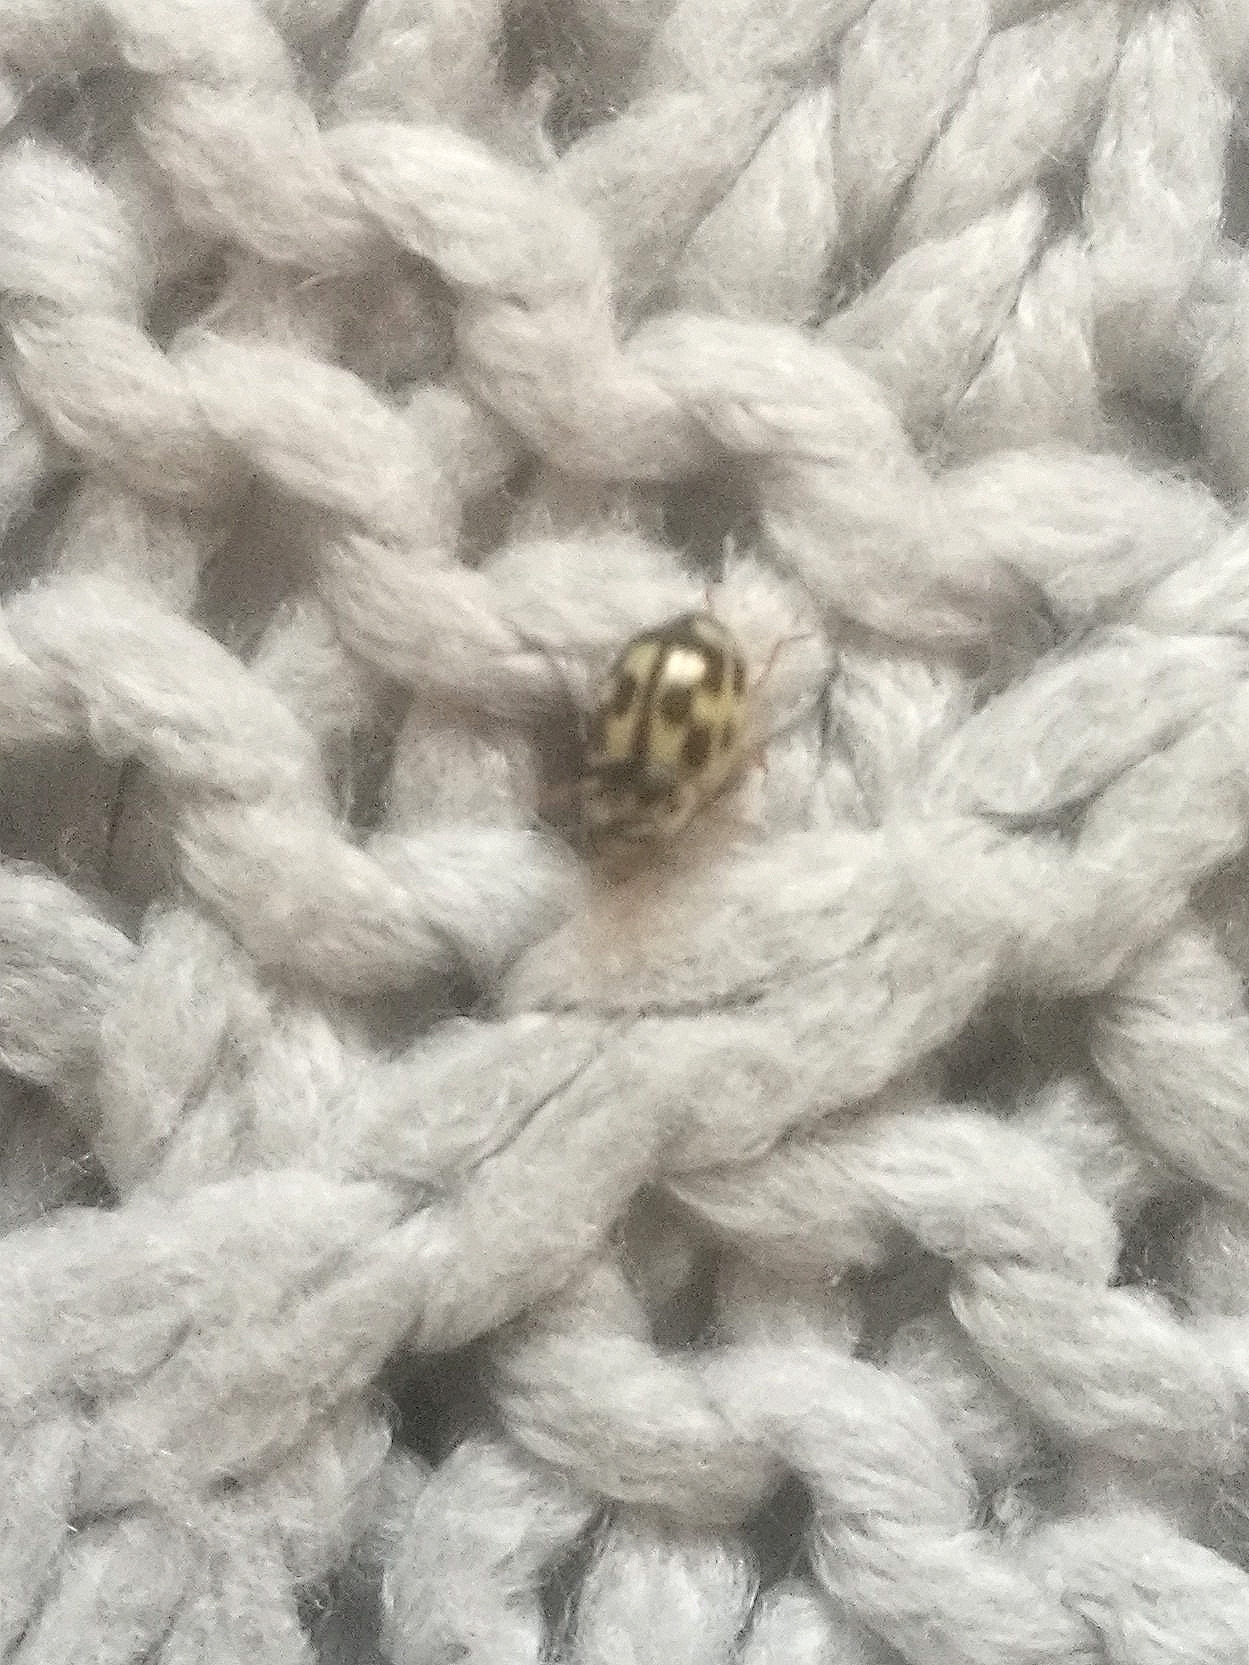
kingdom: Animalia
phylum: Arthropoda
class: Insecta
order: Coleoptera
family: Coccinellidae
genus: Propylaea
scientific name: Propylaea quatuordecimpunctata
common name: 14-spotted ladybird beetle
